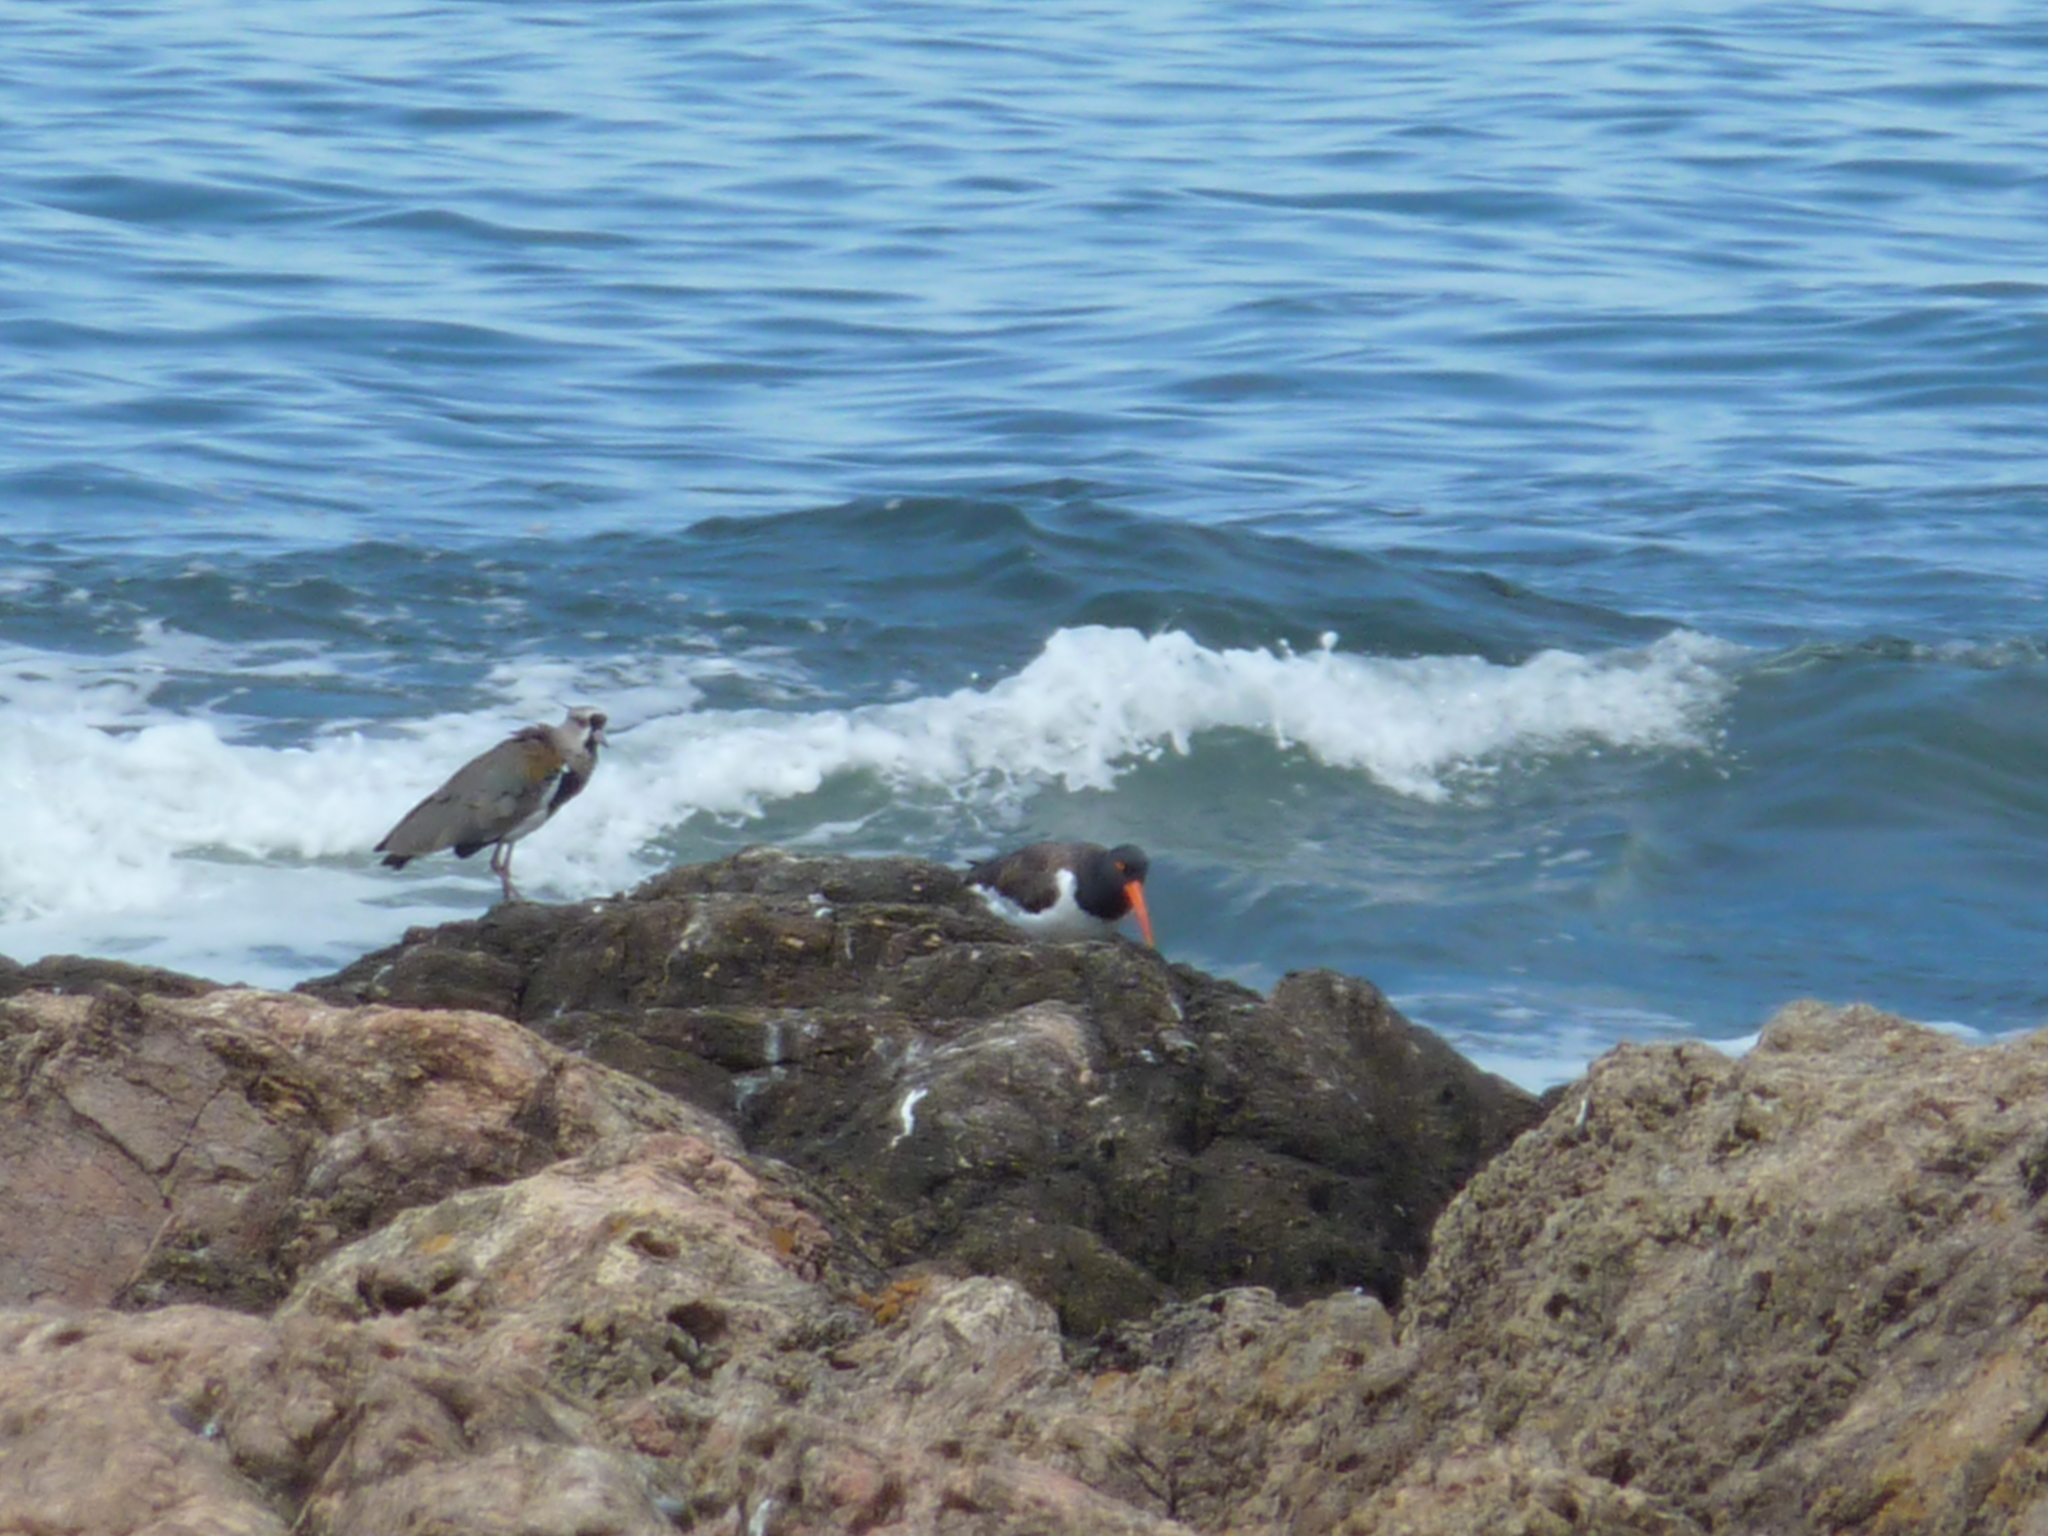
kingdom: Animalia
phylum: Chordata
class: Aves
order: Charadriiformes
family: Charadriidae
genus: Vanellus
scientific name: Vanellus chilensis
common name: Southern lapwing
